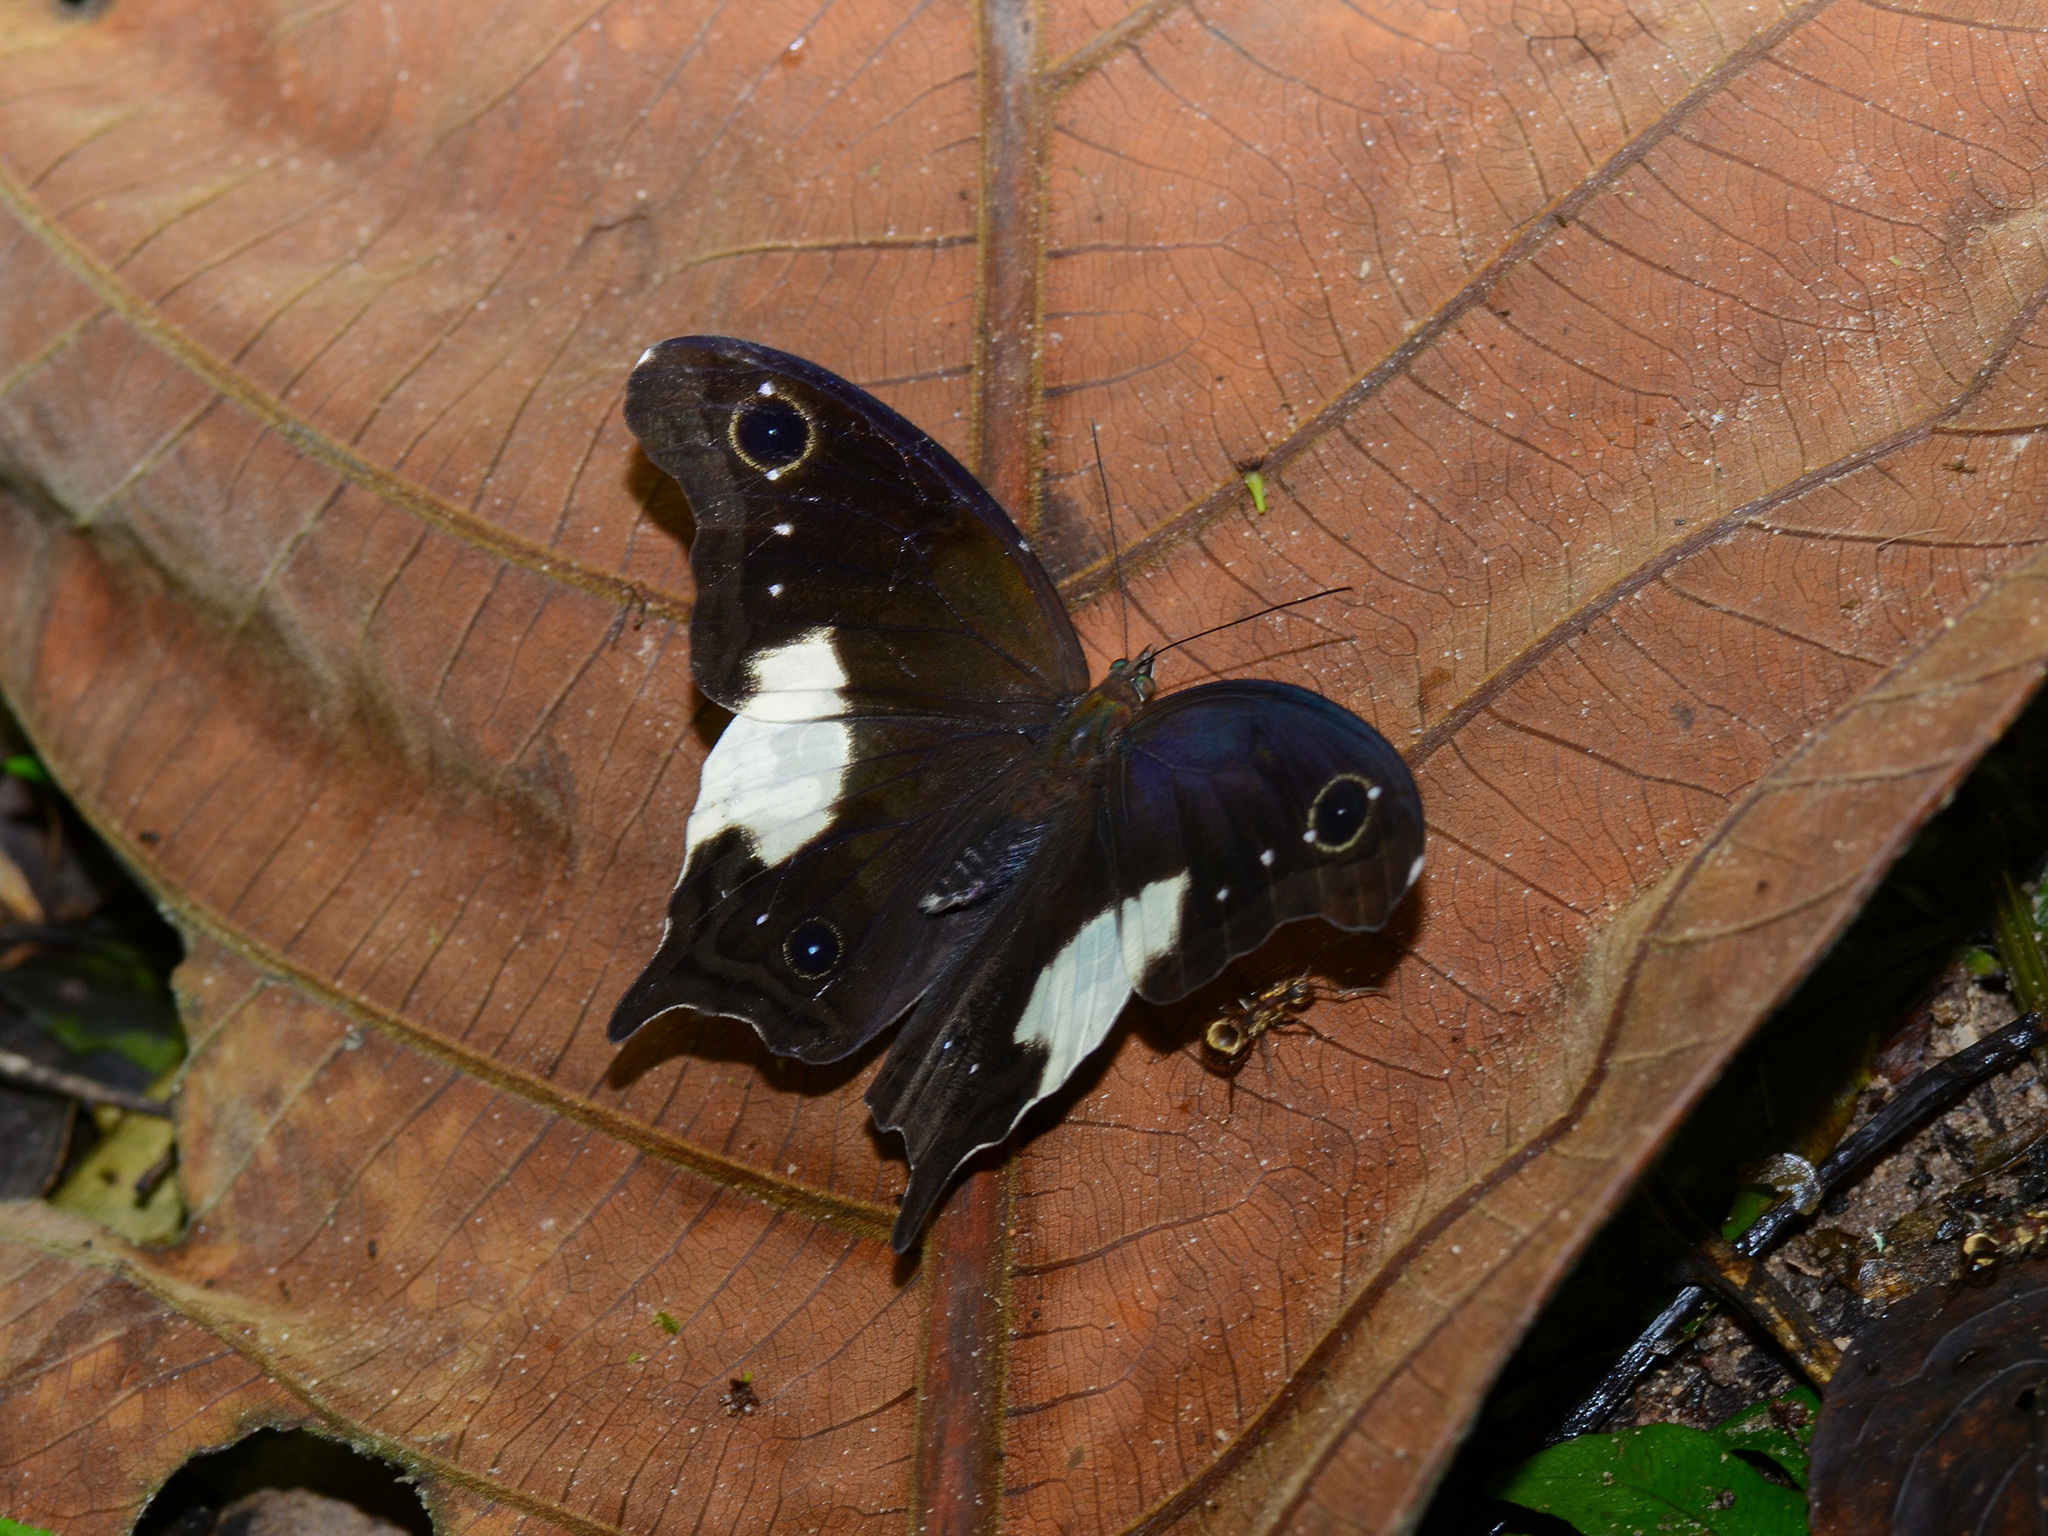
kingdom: Animalia
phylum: Arthropoda
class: Insecta
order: Lepidoptera
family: Nymphalidae
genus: Neorina
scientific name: Neorina lowii
